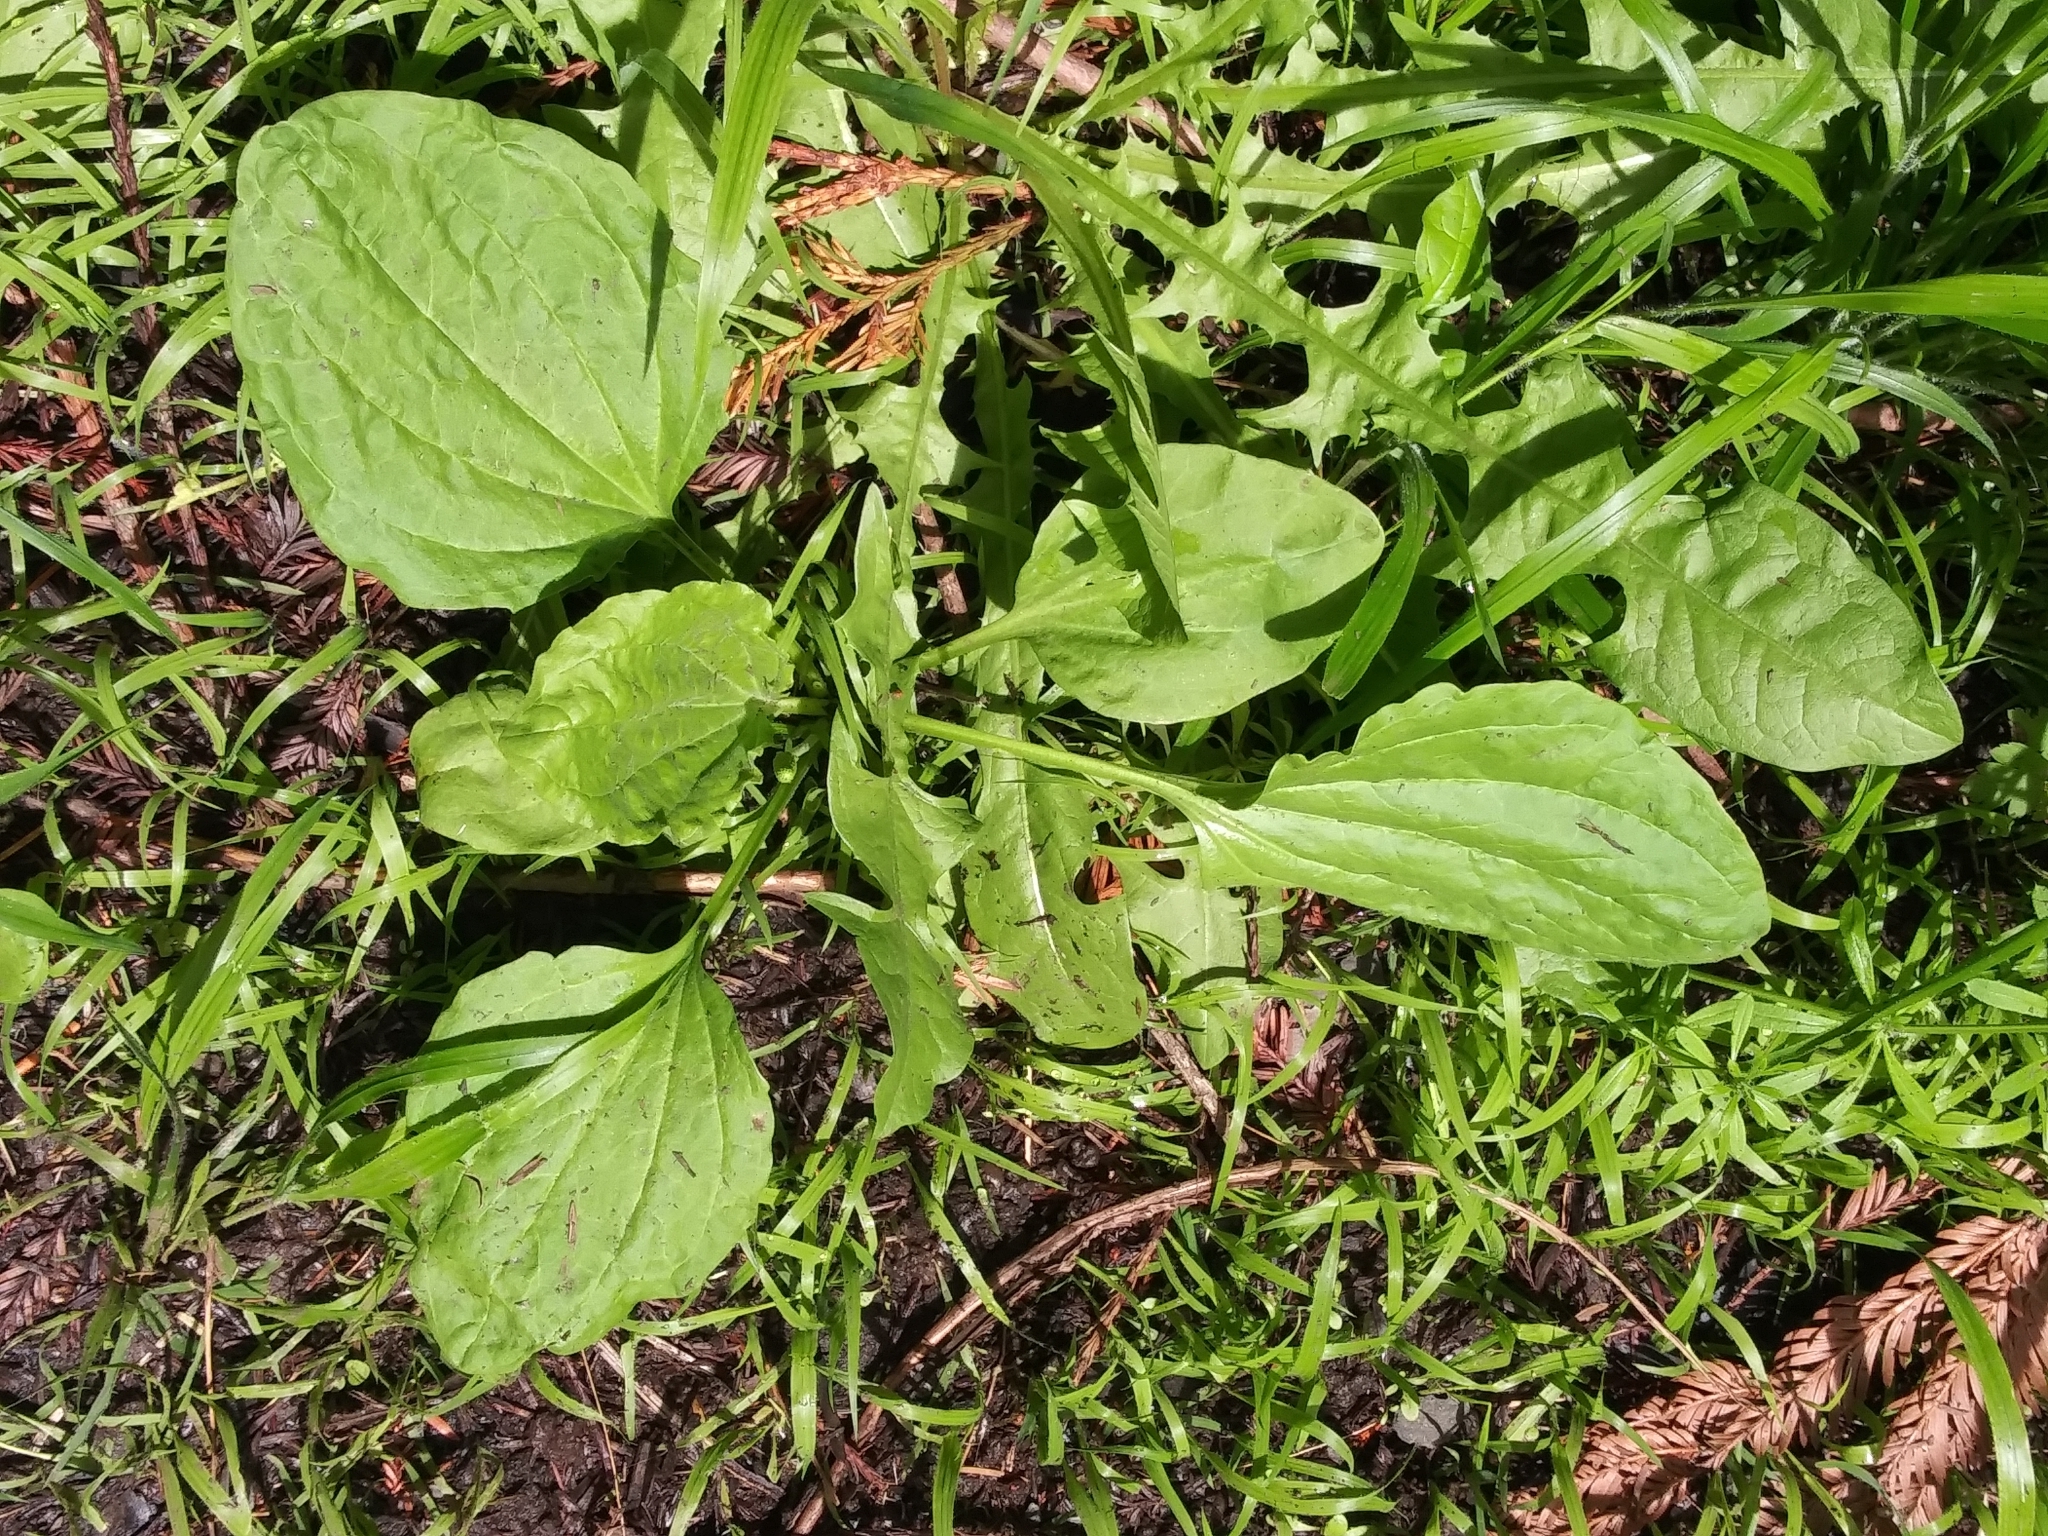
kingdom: Plantae
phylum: Tracheophyta
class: Magnoliopsida
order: Lamiales
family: Plantaginaceae
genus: Plantago
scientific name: Plantago major
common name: Common plantain
